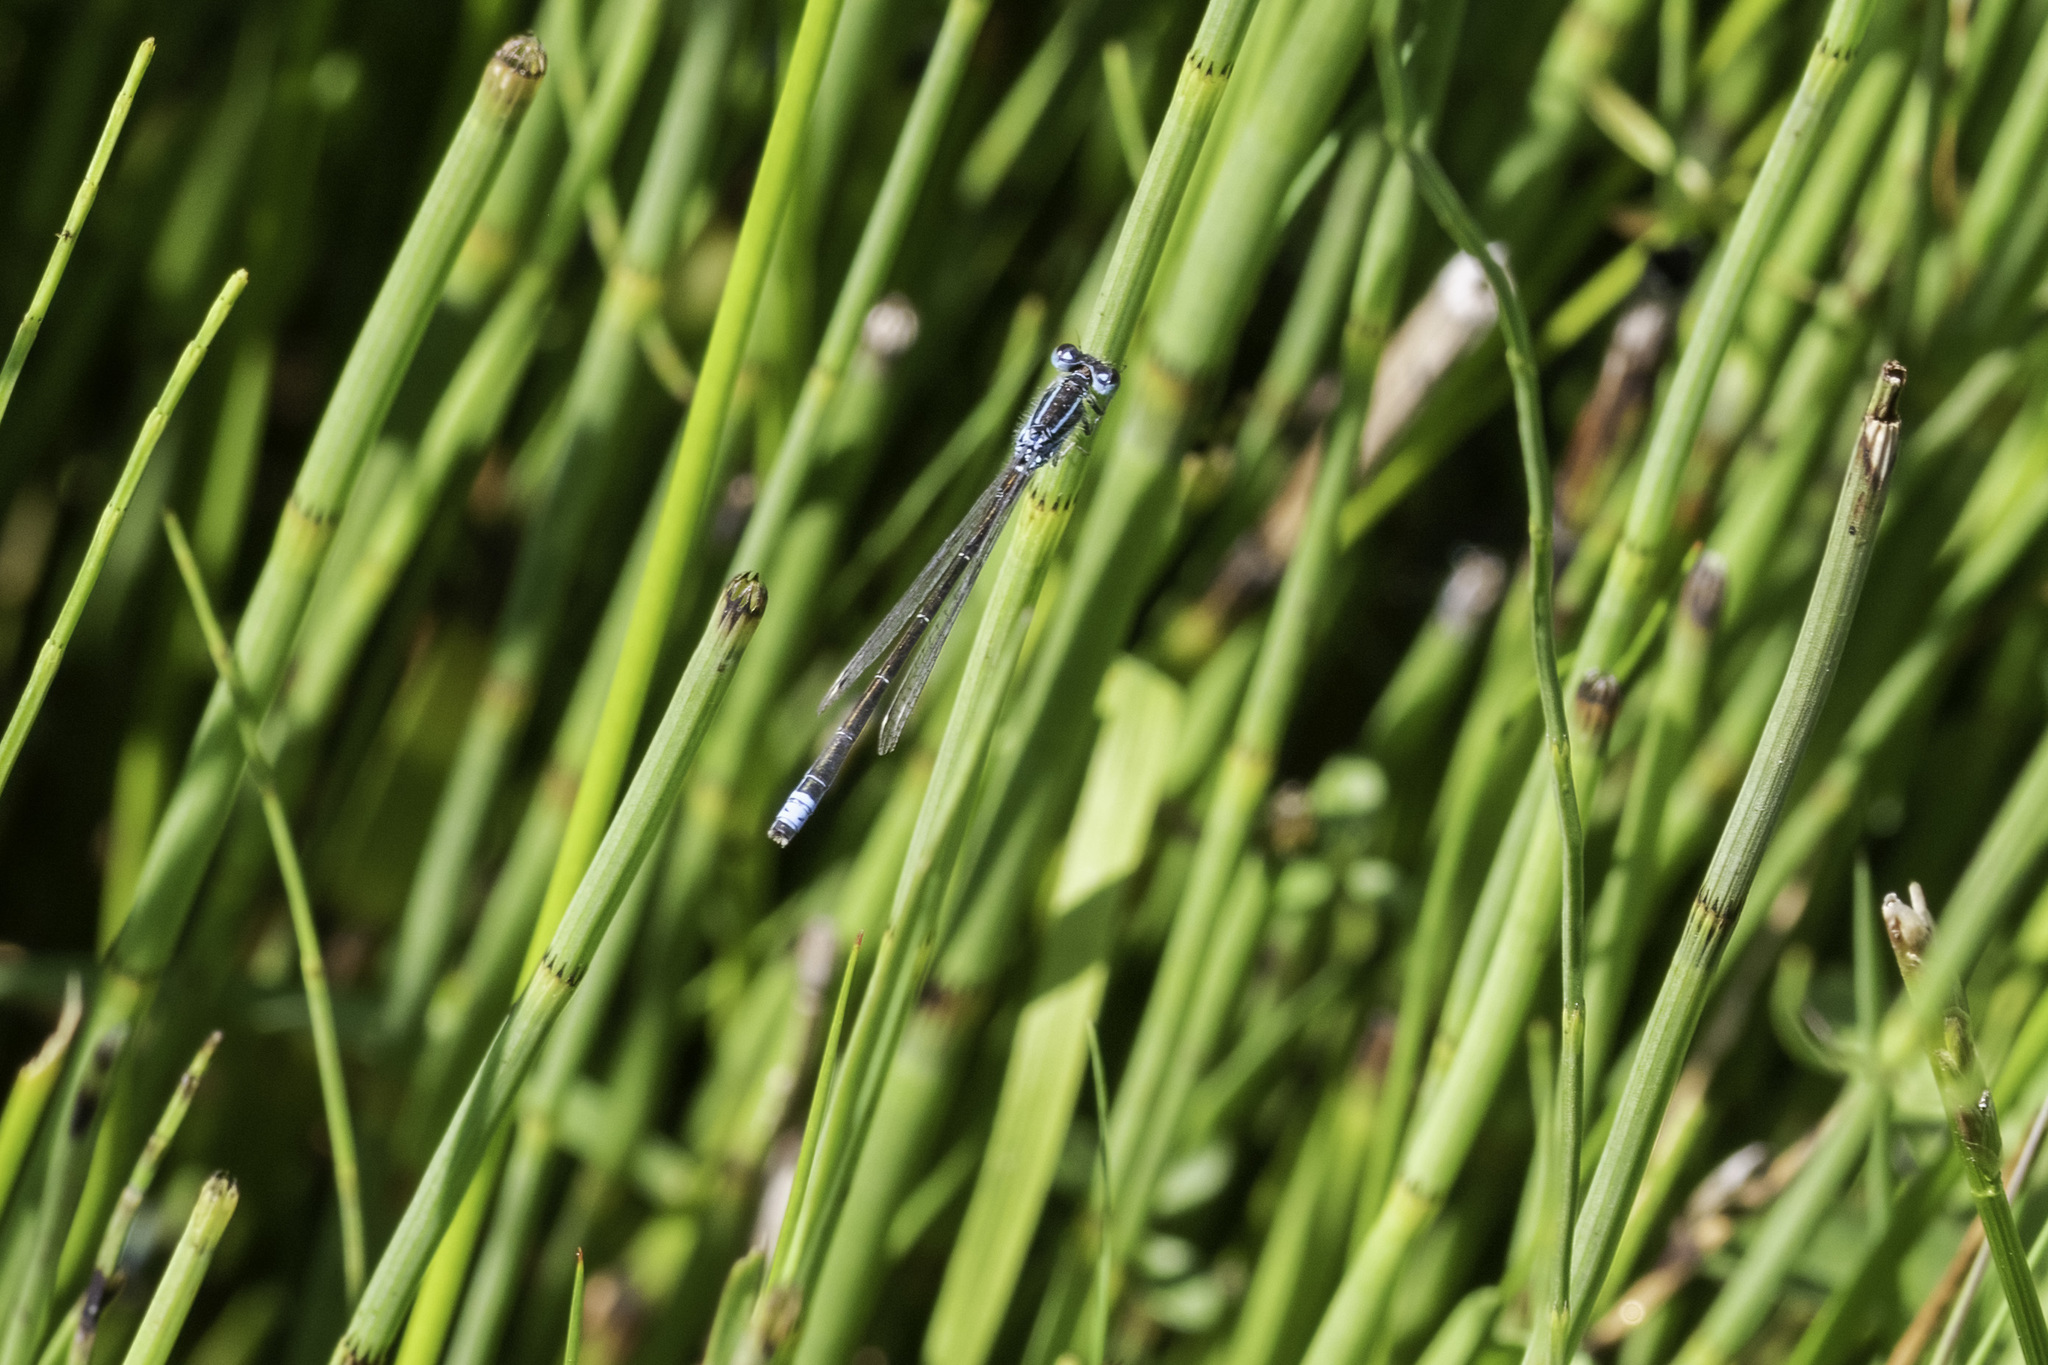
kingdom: Animalia
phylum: Arthropoda
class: Insecta
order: Odonata
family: Coenagrionidae
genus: Ischnura
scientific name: Ischnura pumilio
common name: Scarce blue-tailed damselfly
